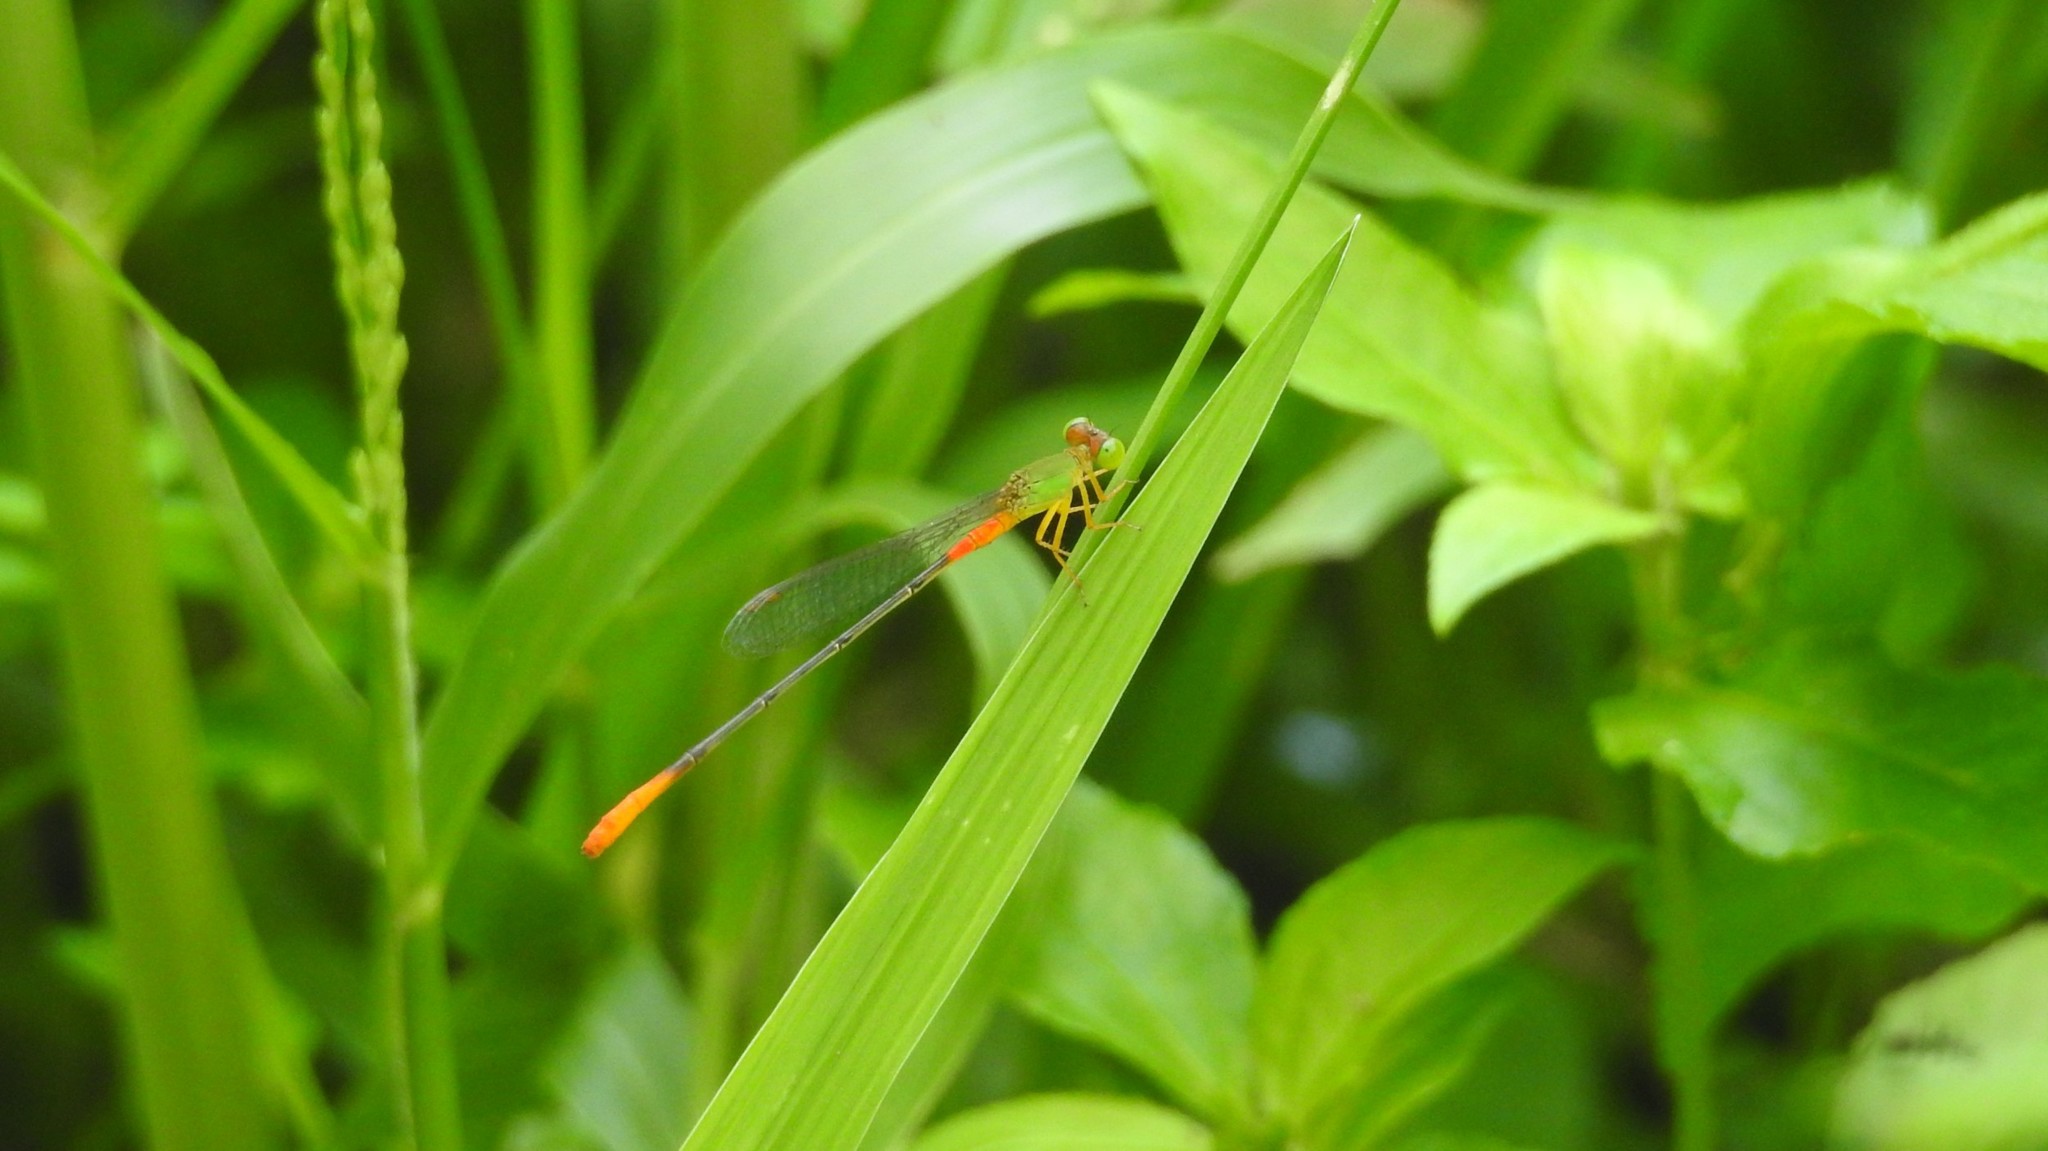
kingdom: Animalia
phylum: Arthropoda
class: Insecta
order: Odonata
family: Coenagrionidae
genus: Ceriagrion
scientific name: Ceriagrion cerinorubellum
